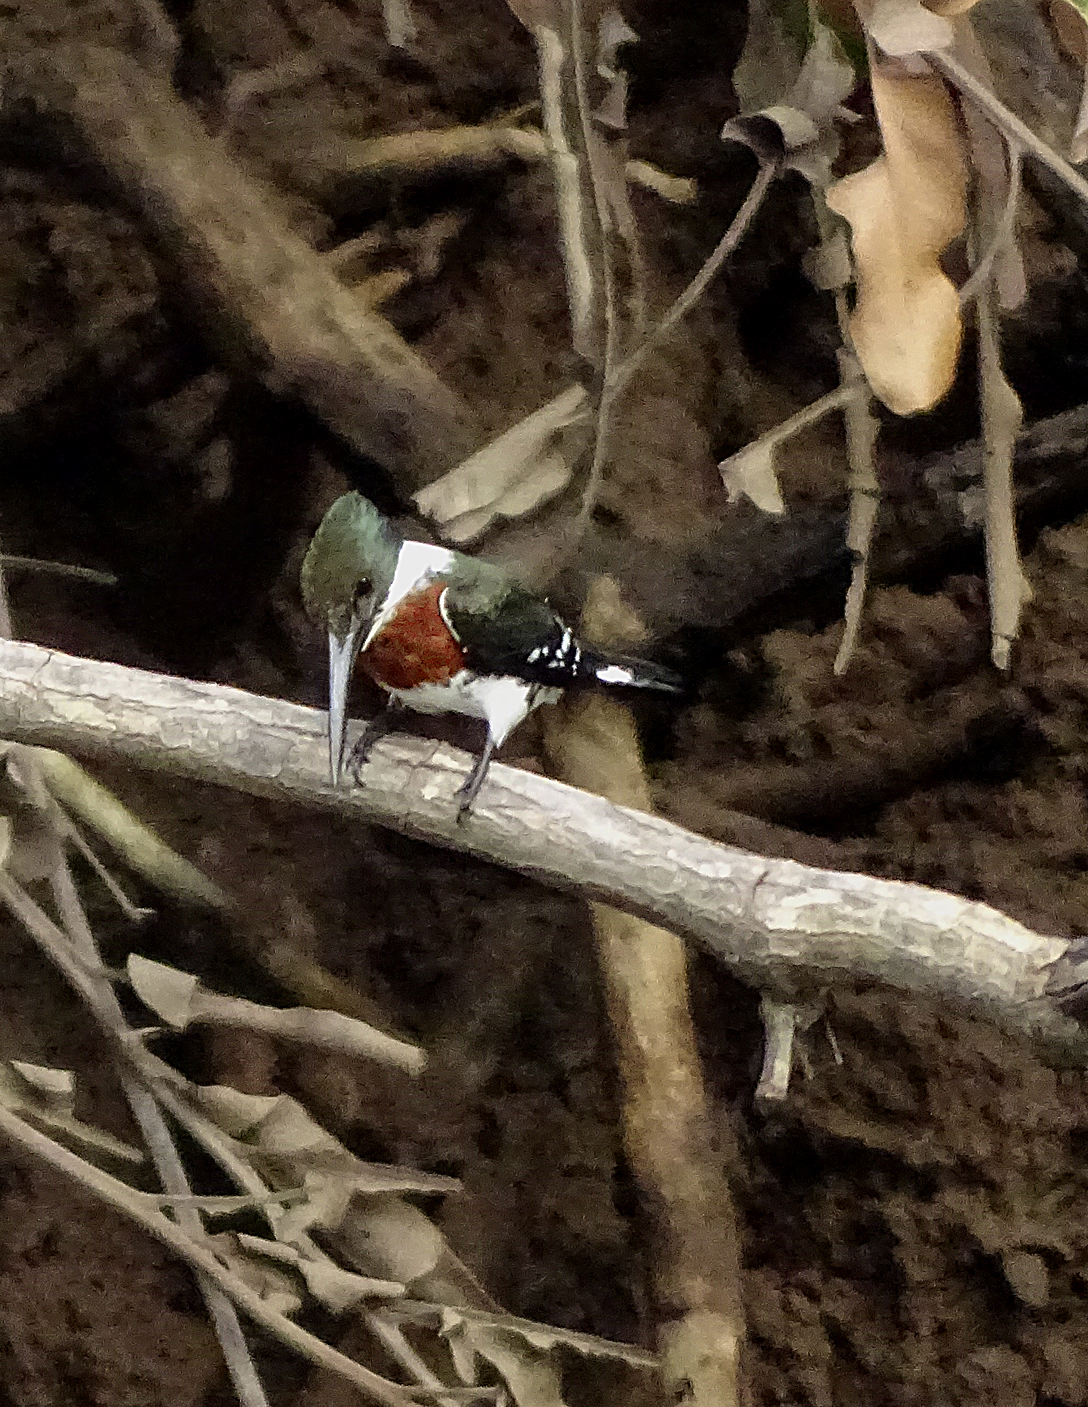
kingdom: Animalia
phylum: Chordata
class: Aves
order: Coraciiformes
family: Alcedinidae
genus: Chloroceryle
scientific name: Chloroceryle americana
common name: Green kingfisher
